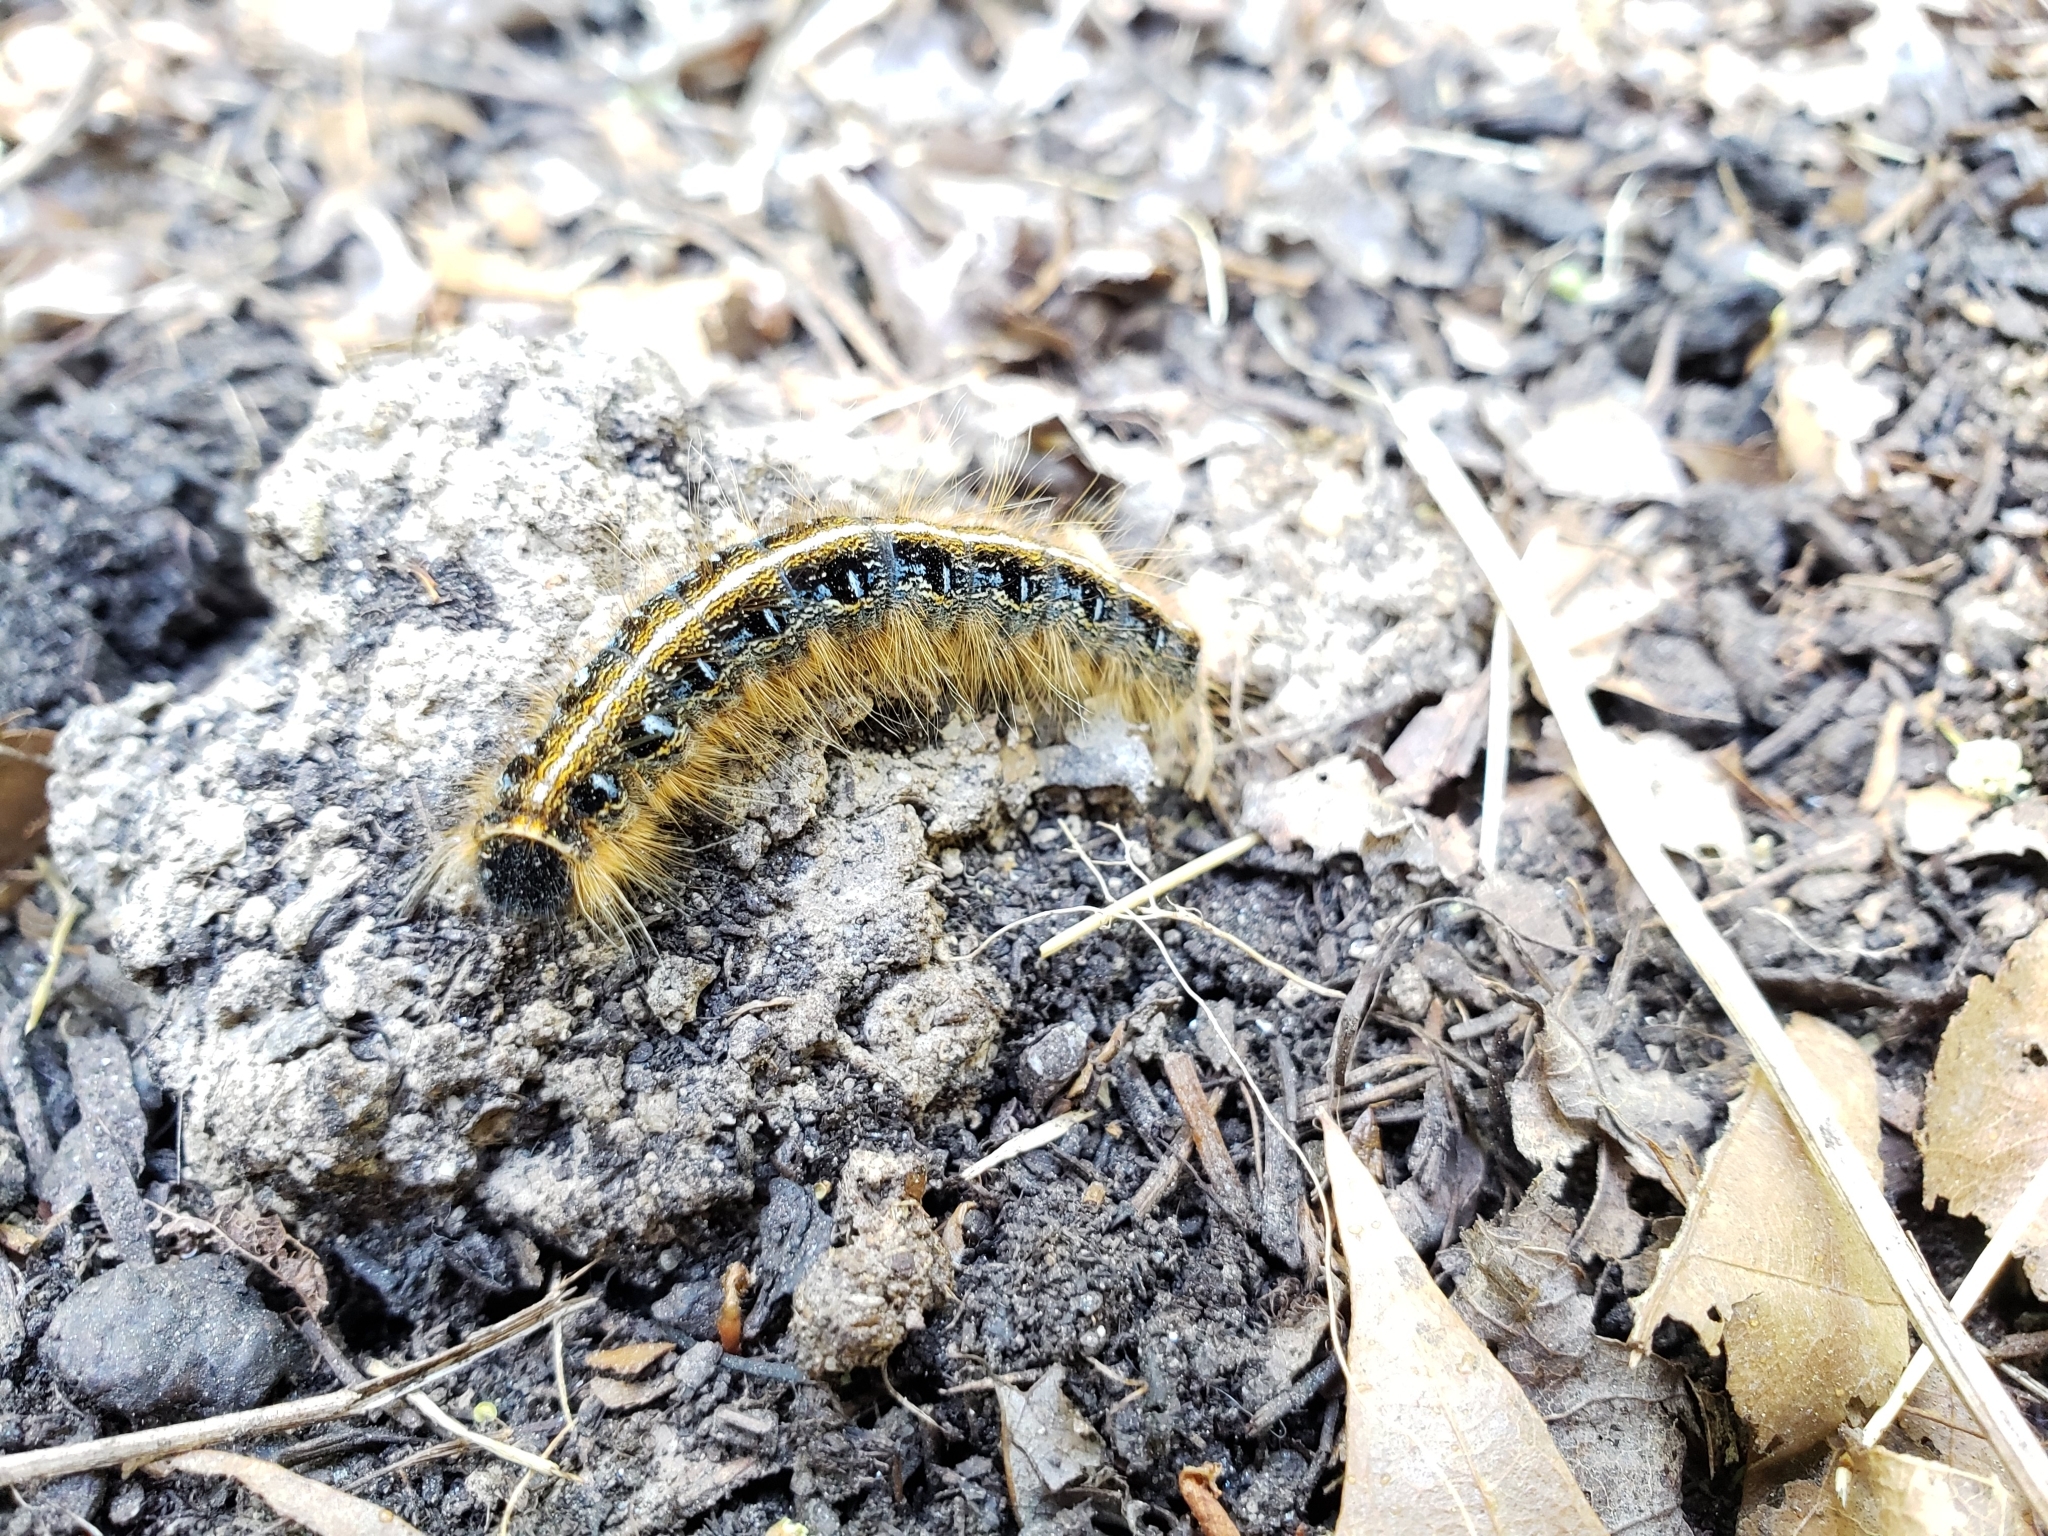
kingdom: Animalia
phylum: Arthropoda
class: Insecta
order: Lepidoptera
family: Lasiocampidae
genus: Malacosoma
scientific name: Malacosoma americana
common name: Eastern tent caterpillar moth
